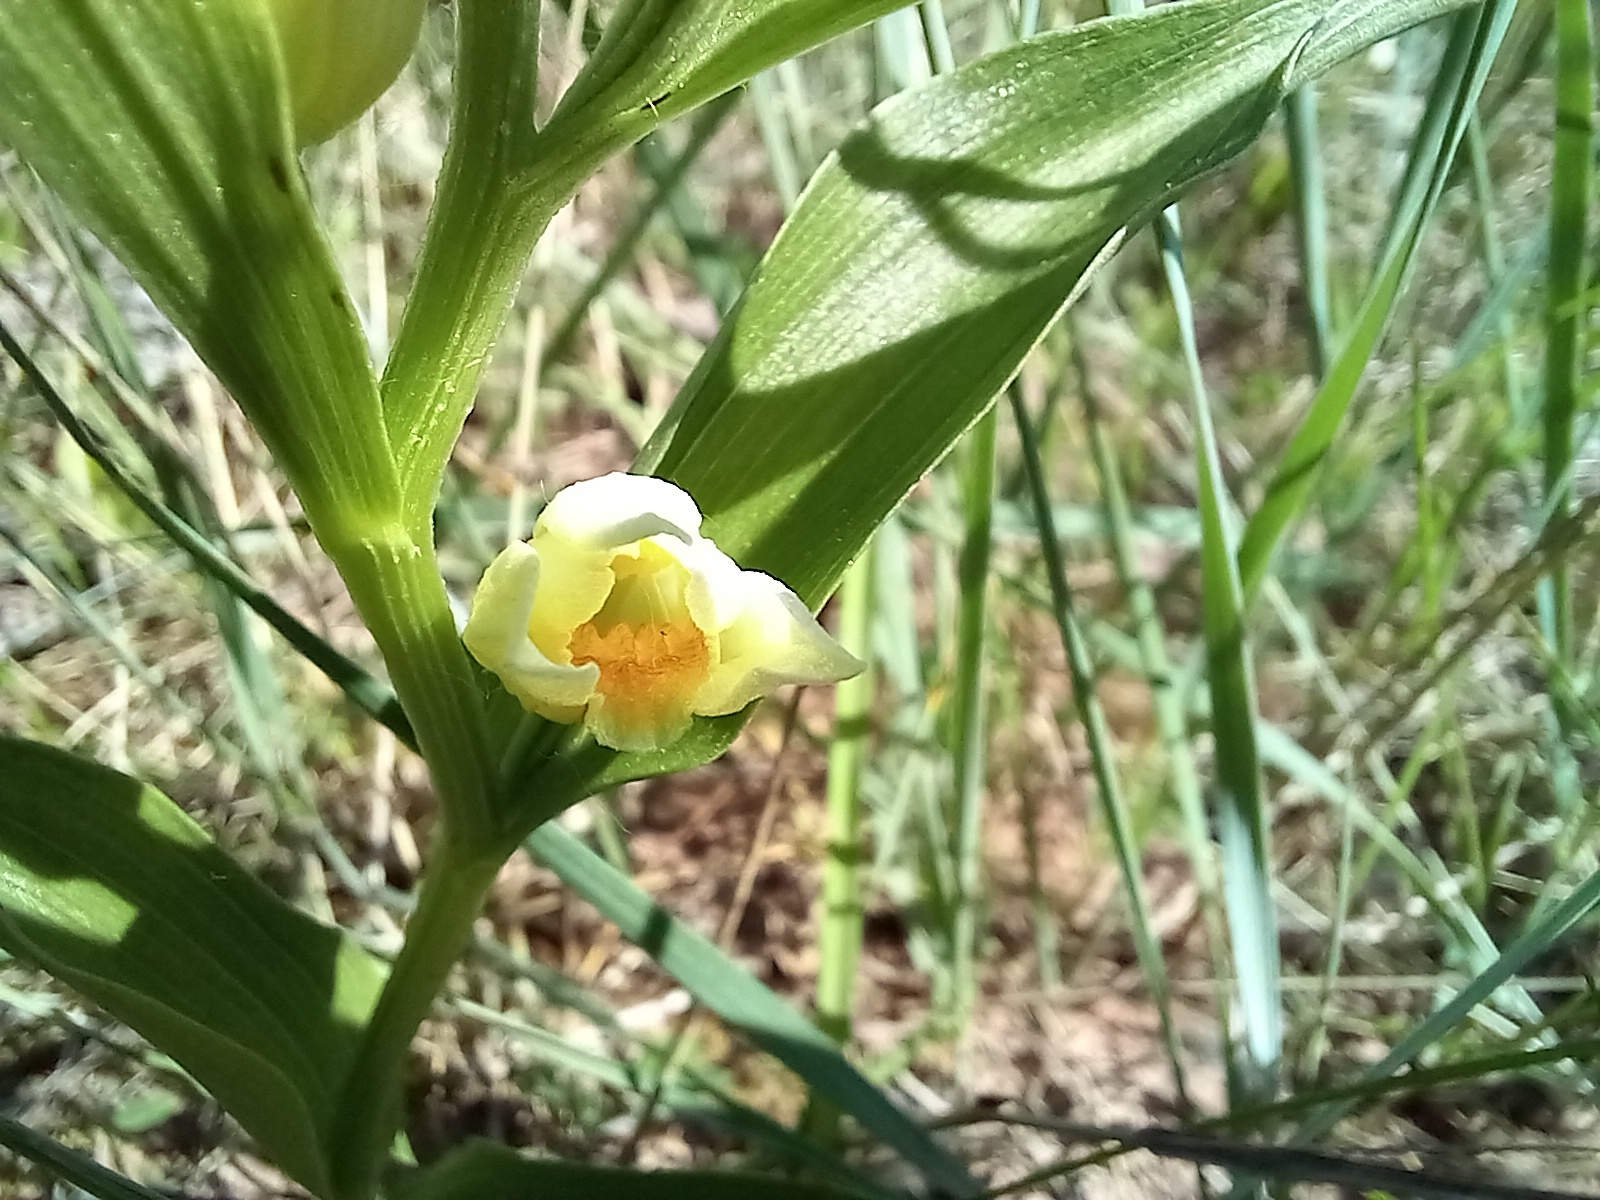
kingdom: Plantae
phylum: Tracheophyta
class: Liliopsida
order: Asparagales
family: Orchidaceae
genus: Cephalanthera
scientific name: Cephalanthera damasonium
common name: White helleborine
